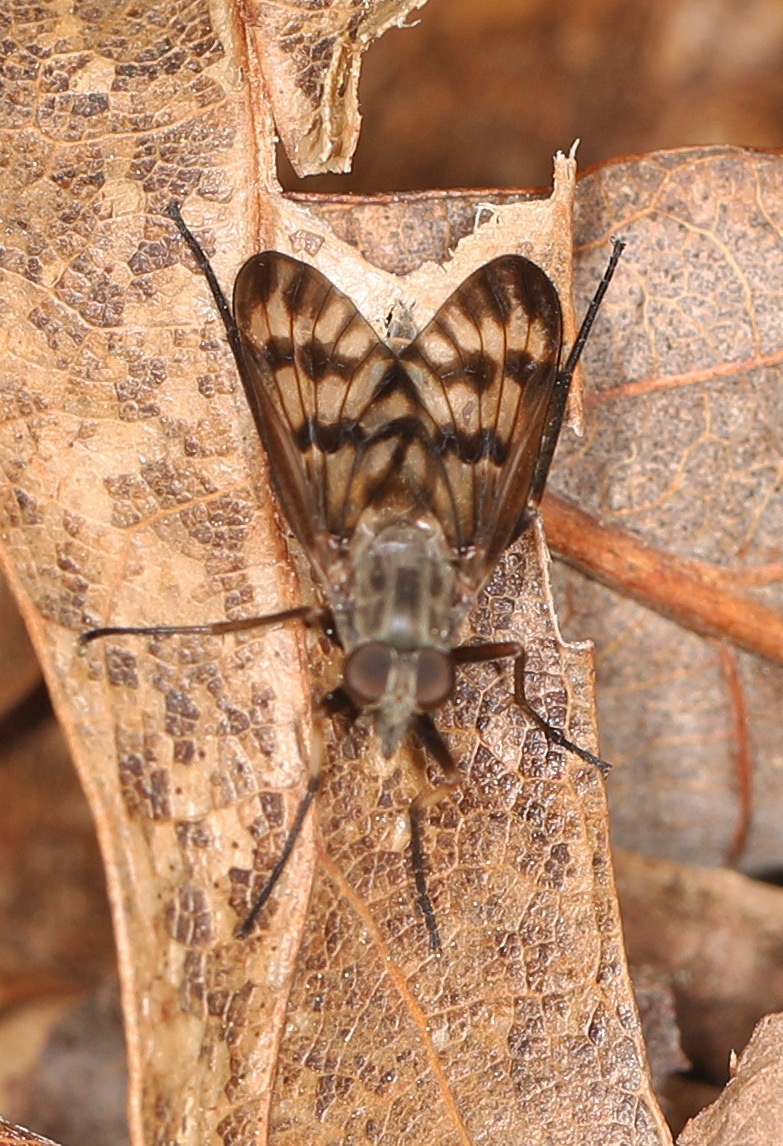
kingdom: Animalia
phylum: Arthropoda
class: Insecta
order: Diptera
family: Rhagionidae
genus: Rhagio
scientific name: Rhagio mystaceus
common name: Common snipe fly
